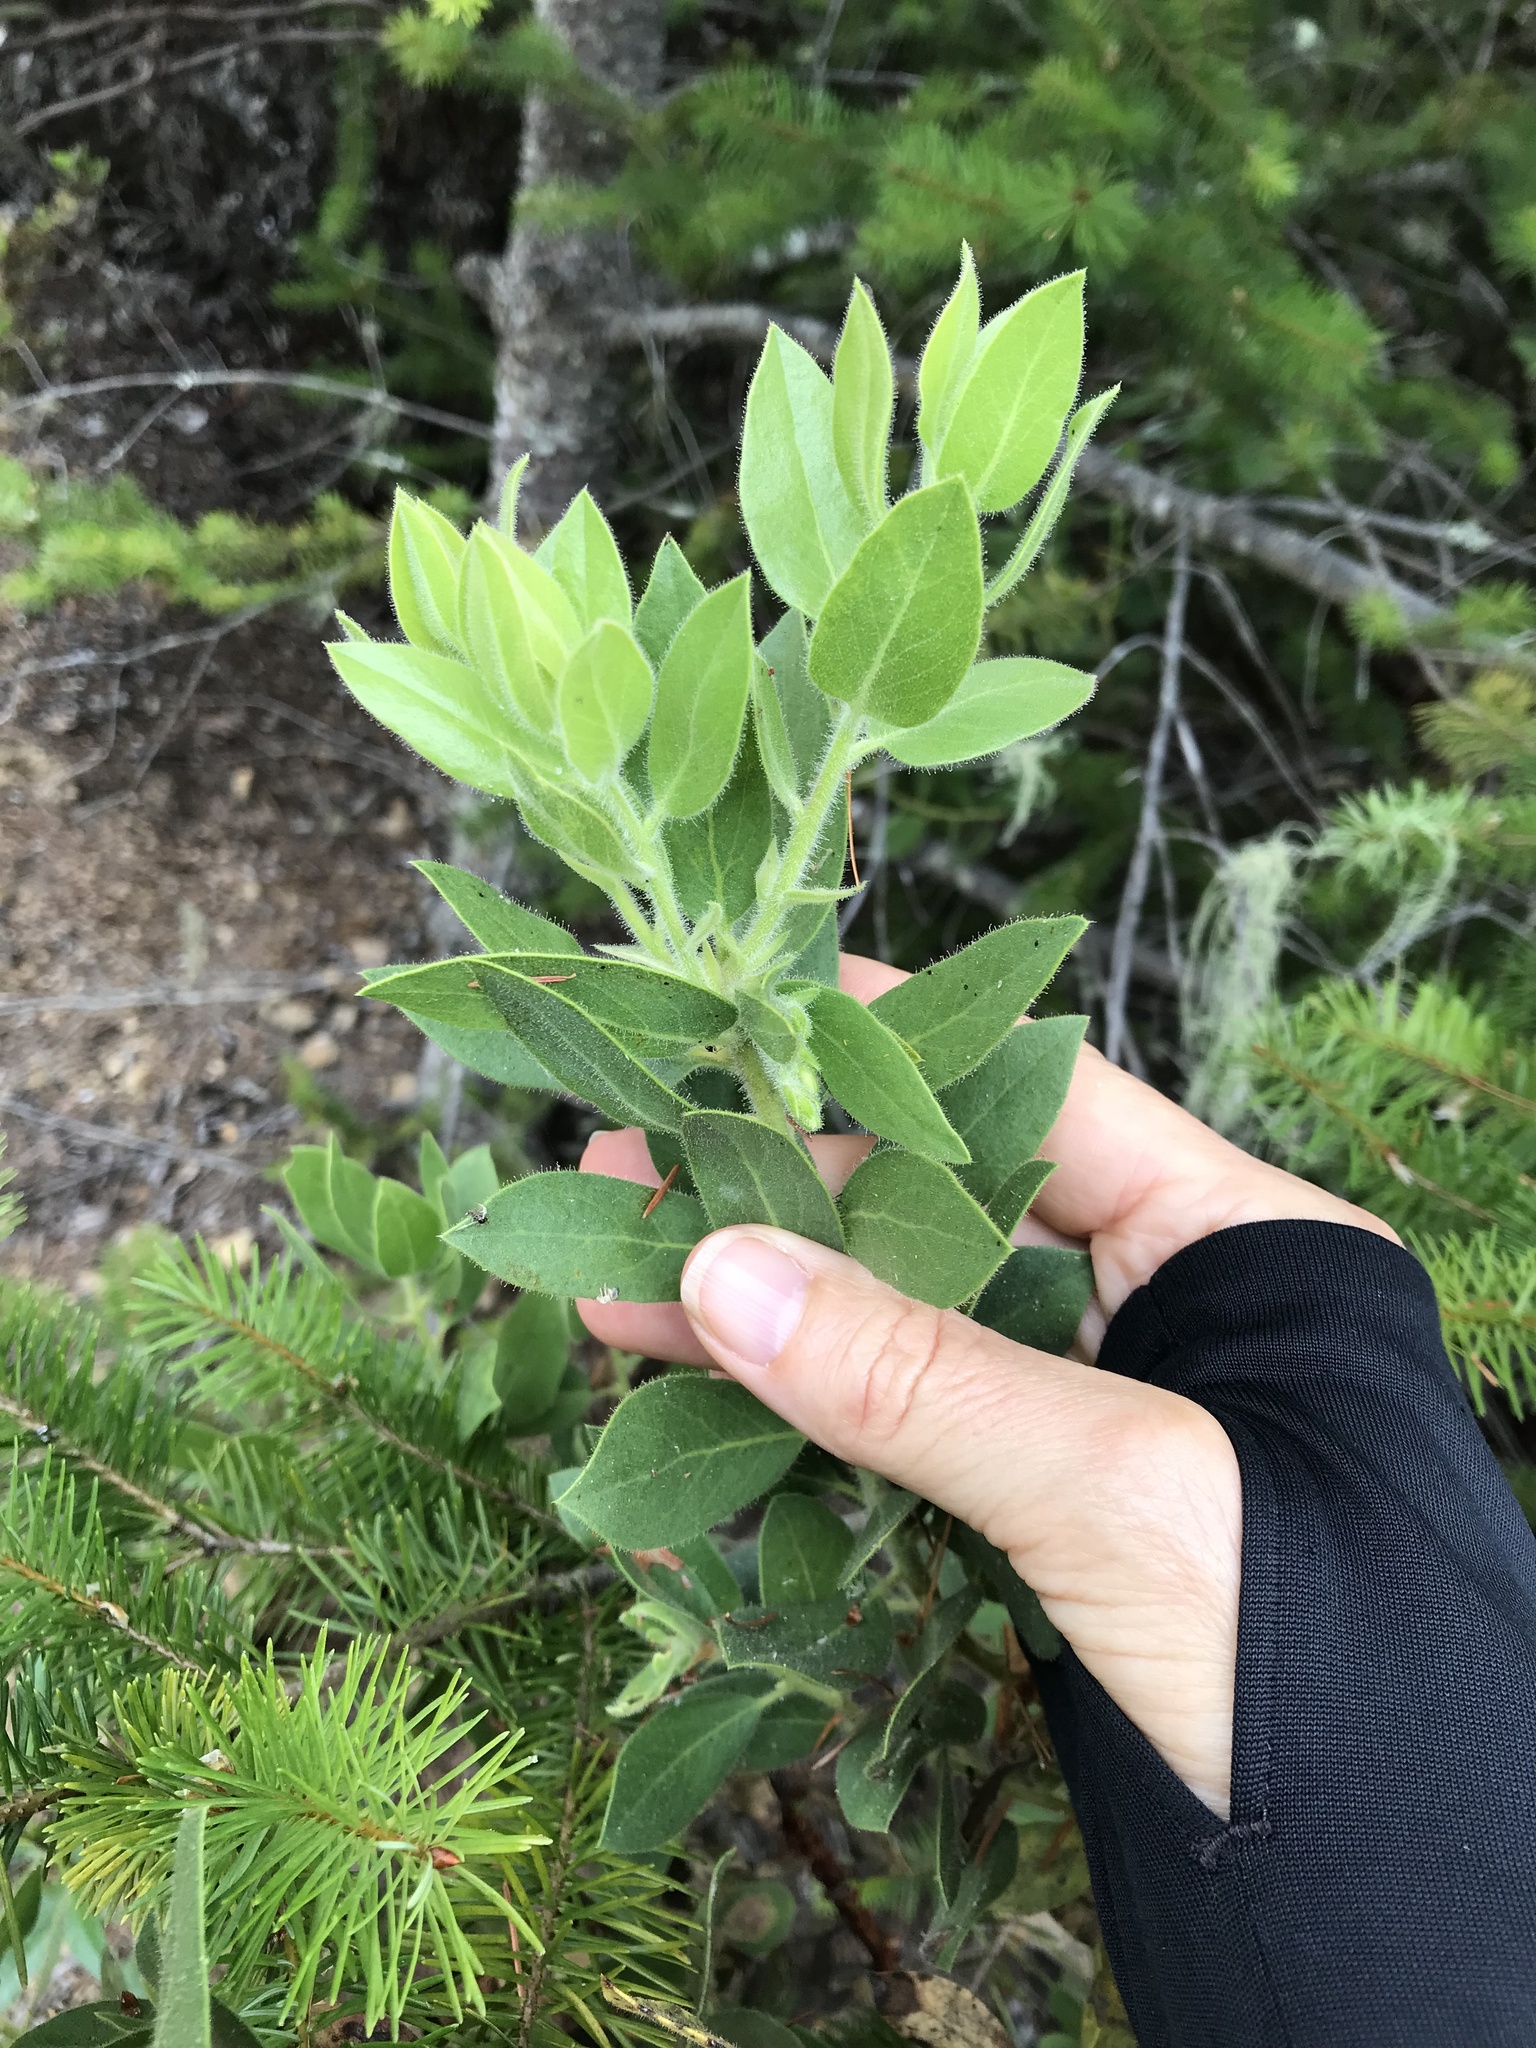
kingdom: Plantae
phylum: Tracheophyta
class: Magnoliopsida
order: Ericales
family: Ericaceae
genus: Arctostaphylos
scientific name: Arctostaphylos virgata
